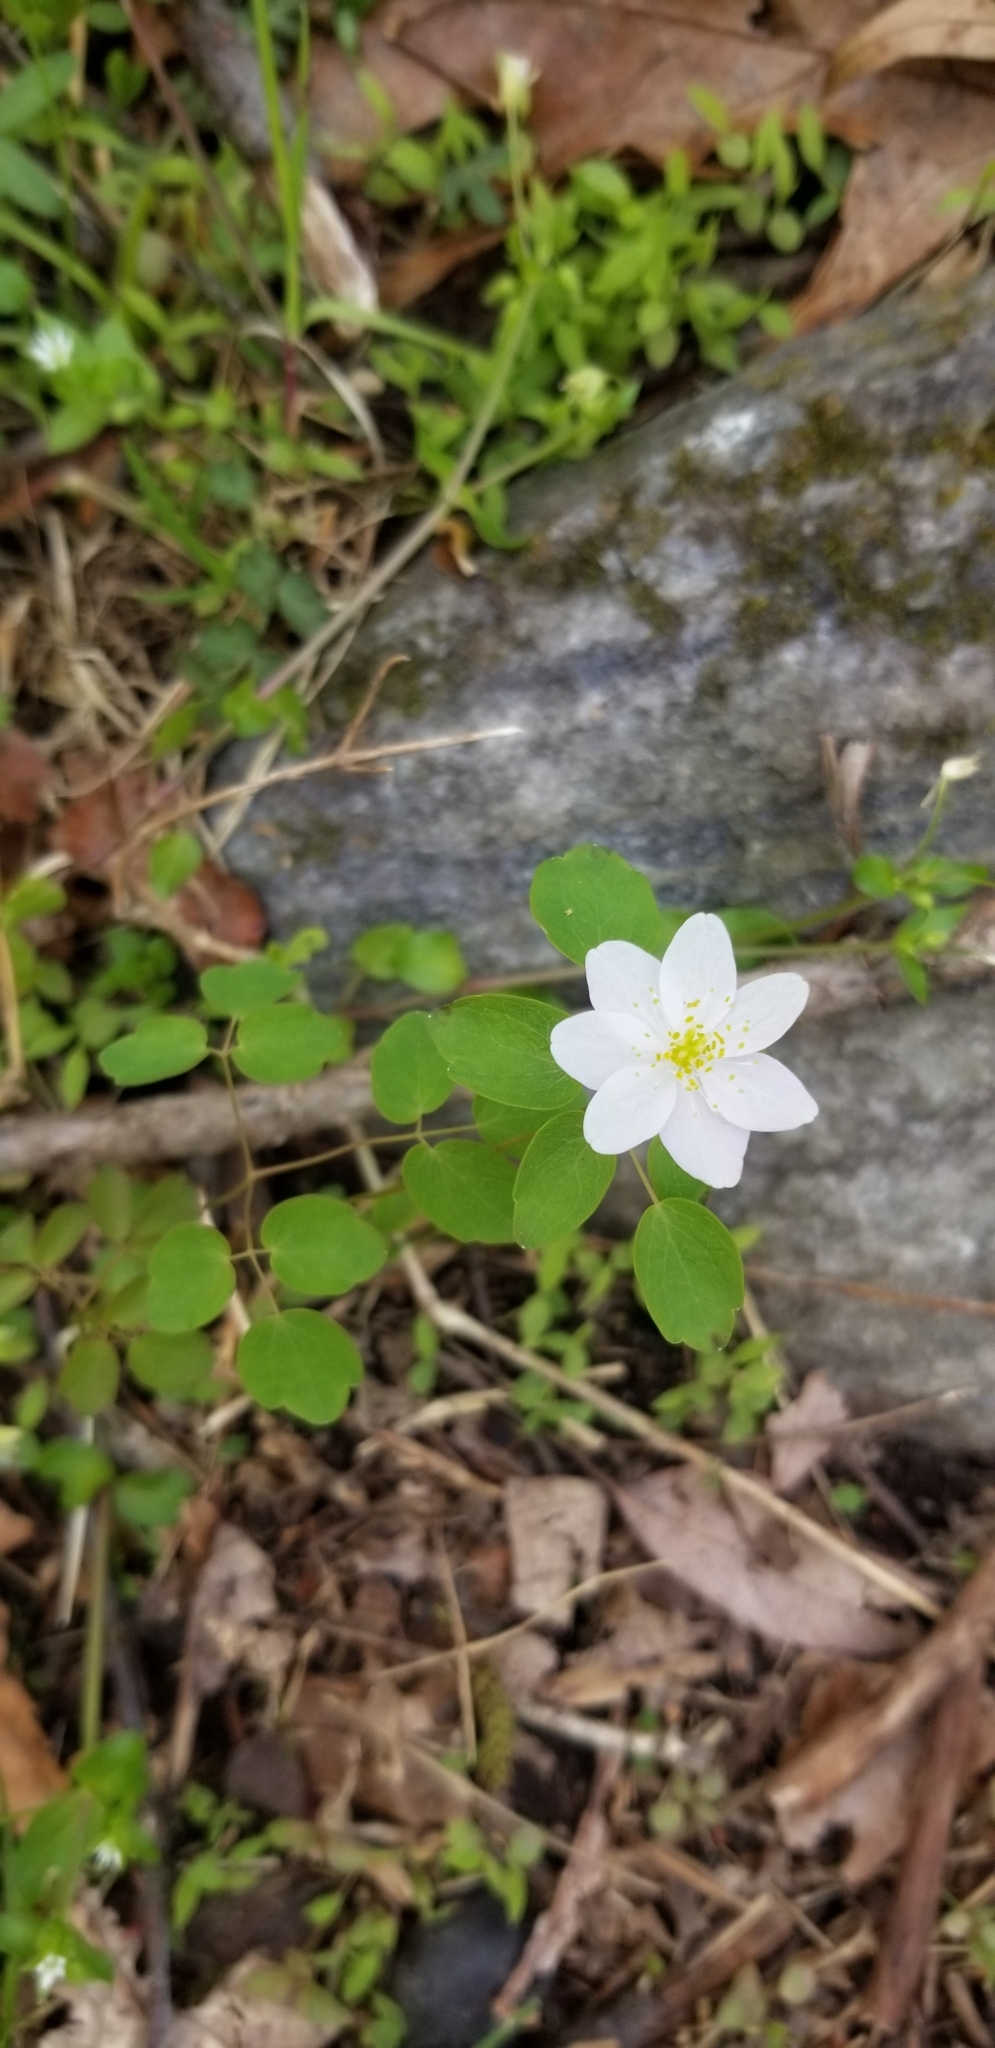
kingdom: Plantae
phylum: Tracheophyta
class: Magnoliopsida
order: Ranunculales
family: Ranunculaceae
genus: Thalictrum
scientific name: Thalictrum thalictroides
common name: Rue-anemone
